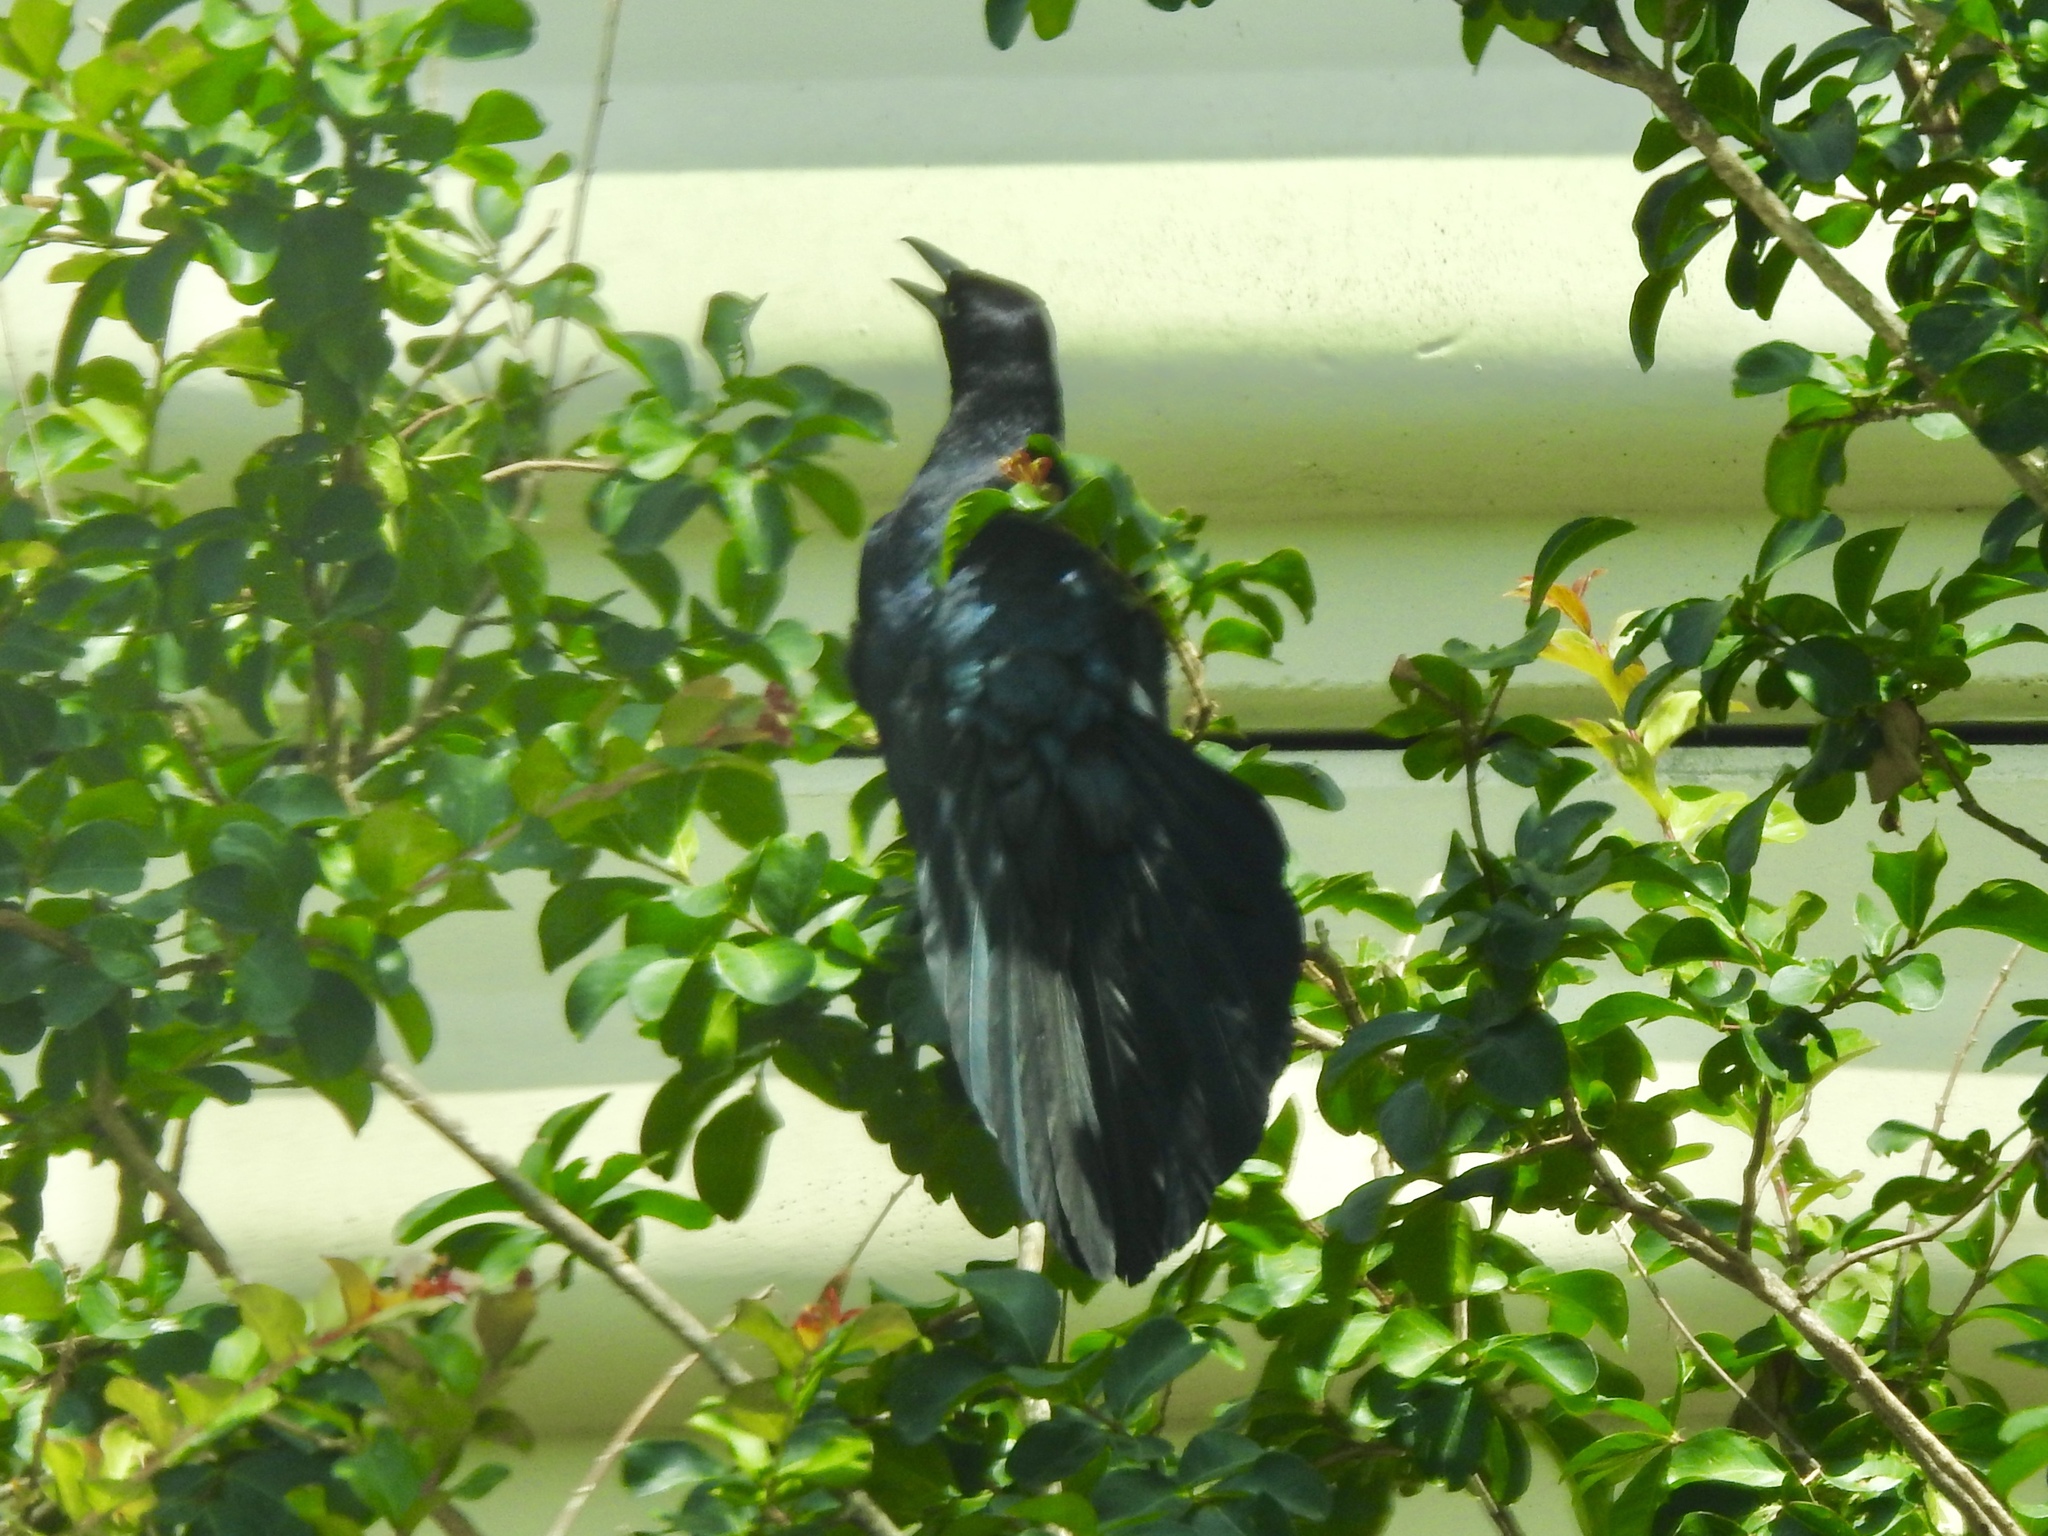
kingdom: Animalia
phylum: Chordata
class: Aves
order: Passeriformes
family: Icteridae
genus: Quiscalus
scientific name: Quiscalus mexicanus
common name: Great-tailed grackle
